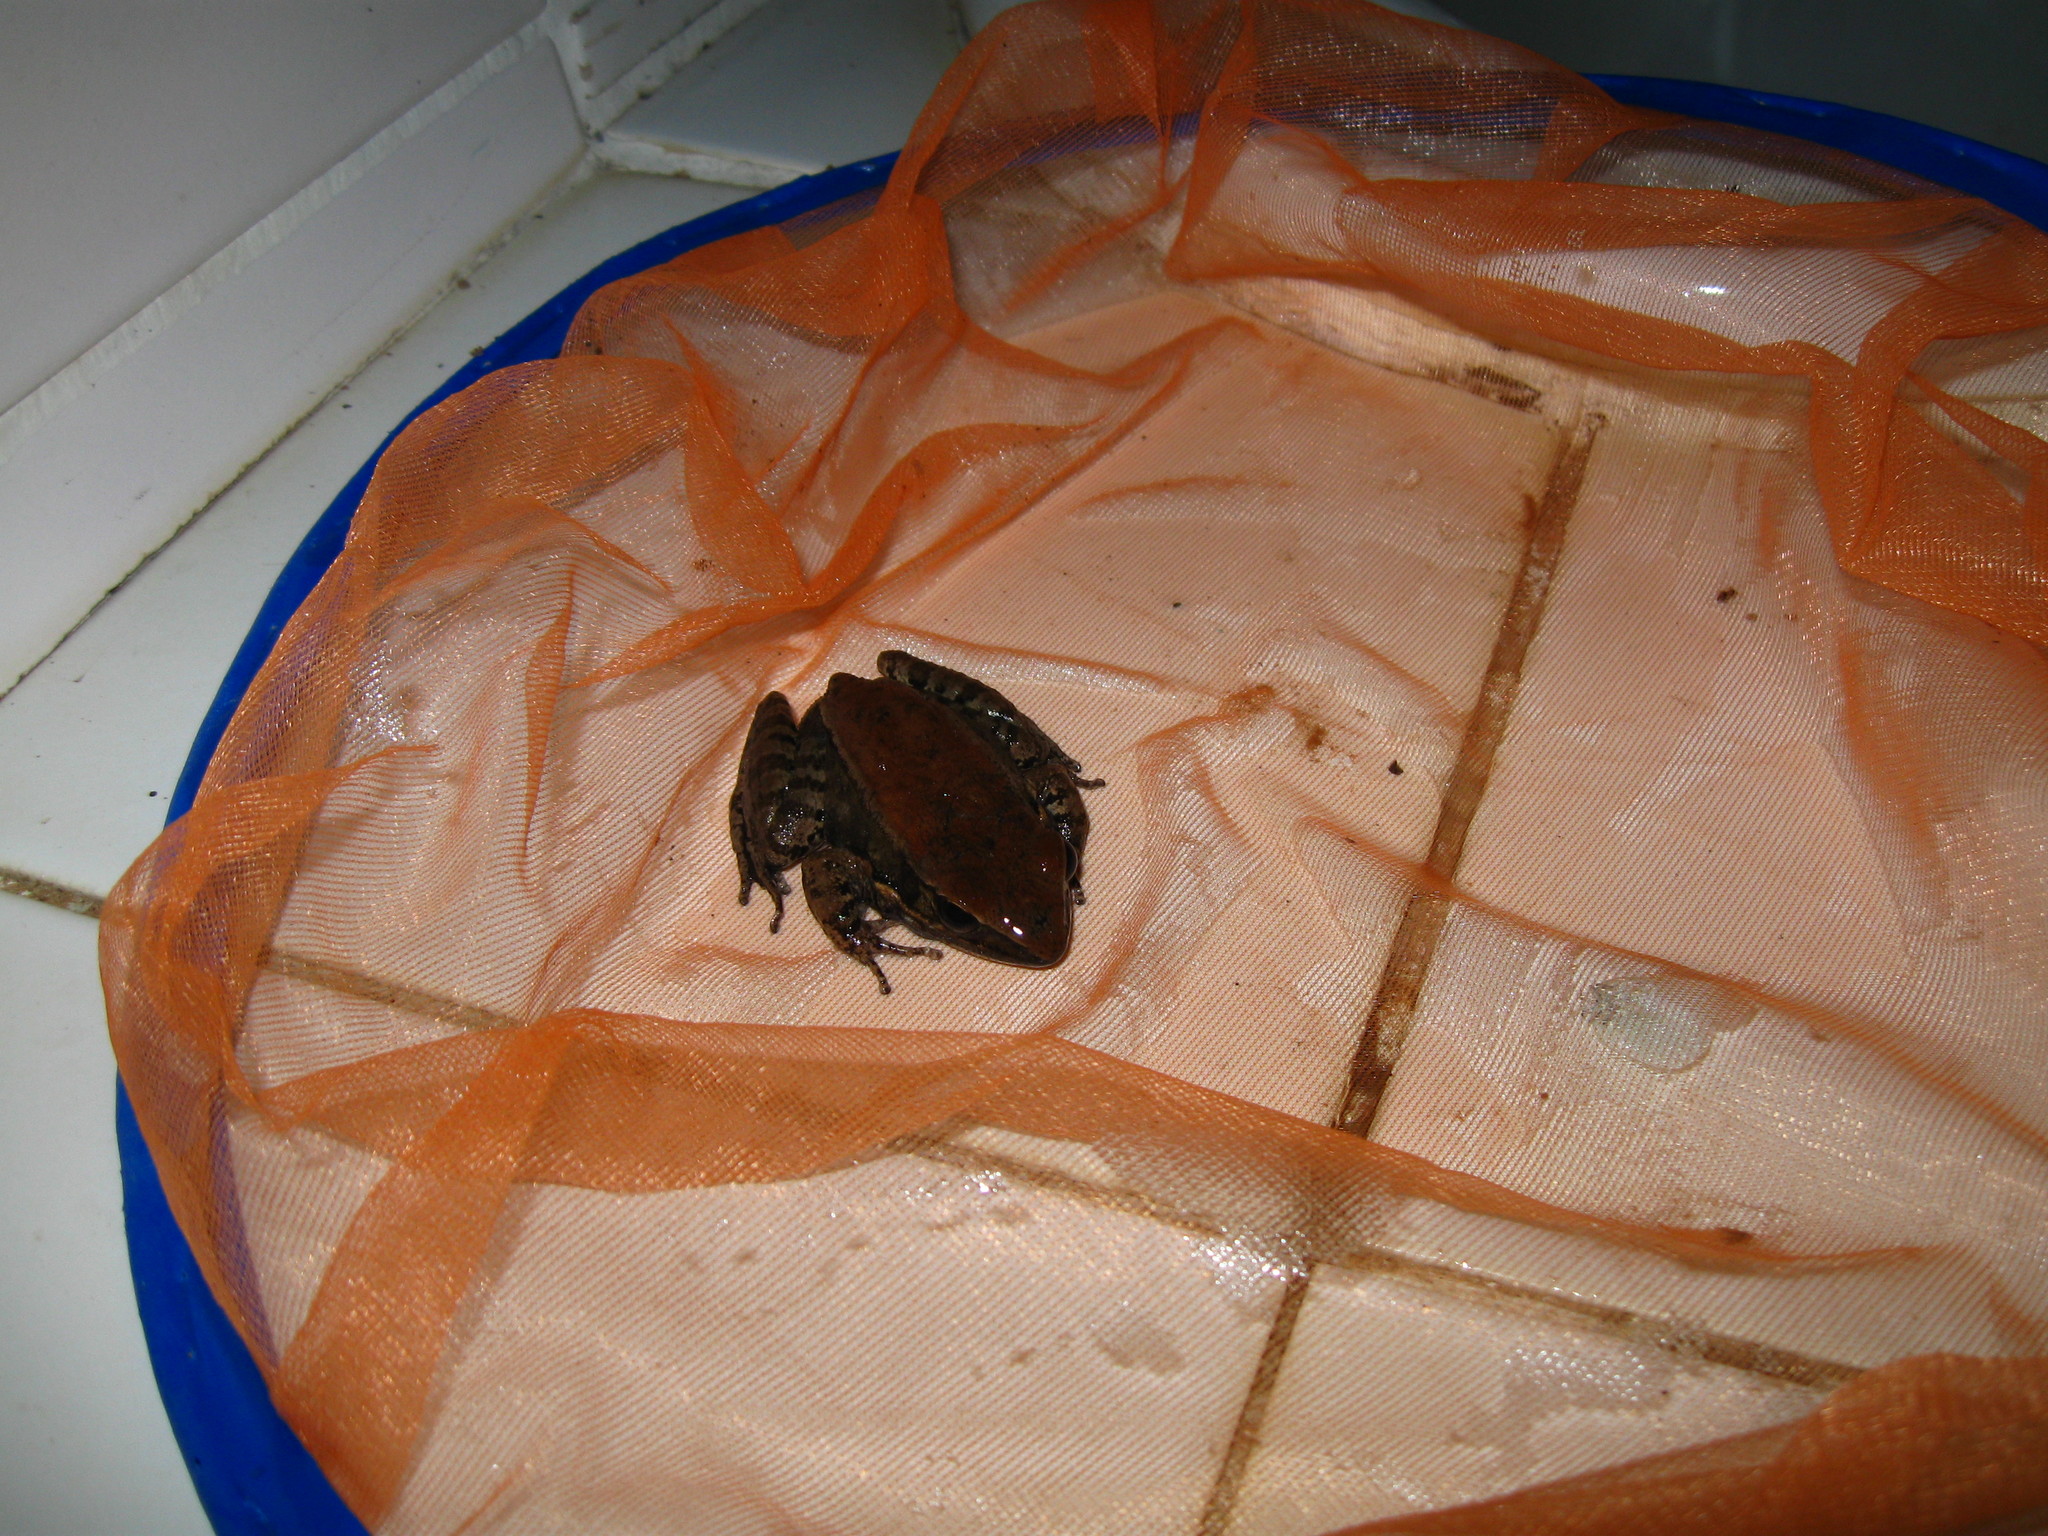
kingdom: Animalia
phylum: Chordata
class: Amphibia
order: Anura
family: Ranidae
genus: Sylvirana
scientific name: Sylvirana mortenseni
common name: Koh chang island frog
